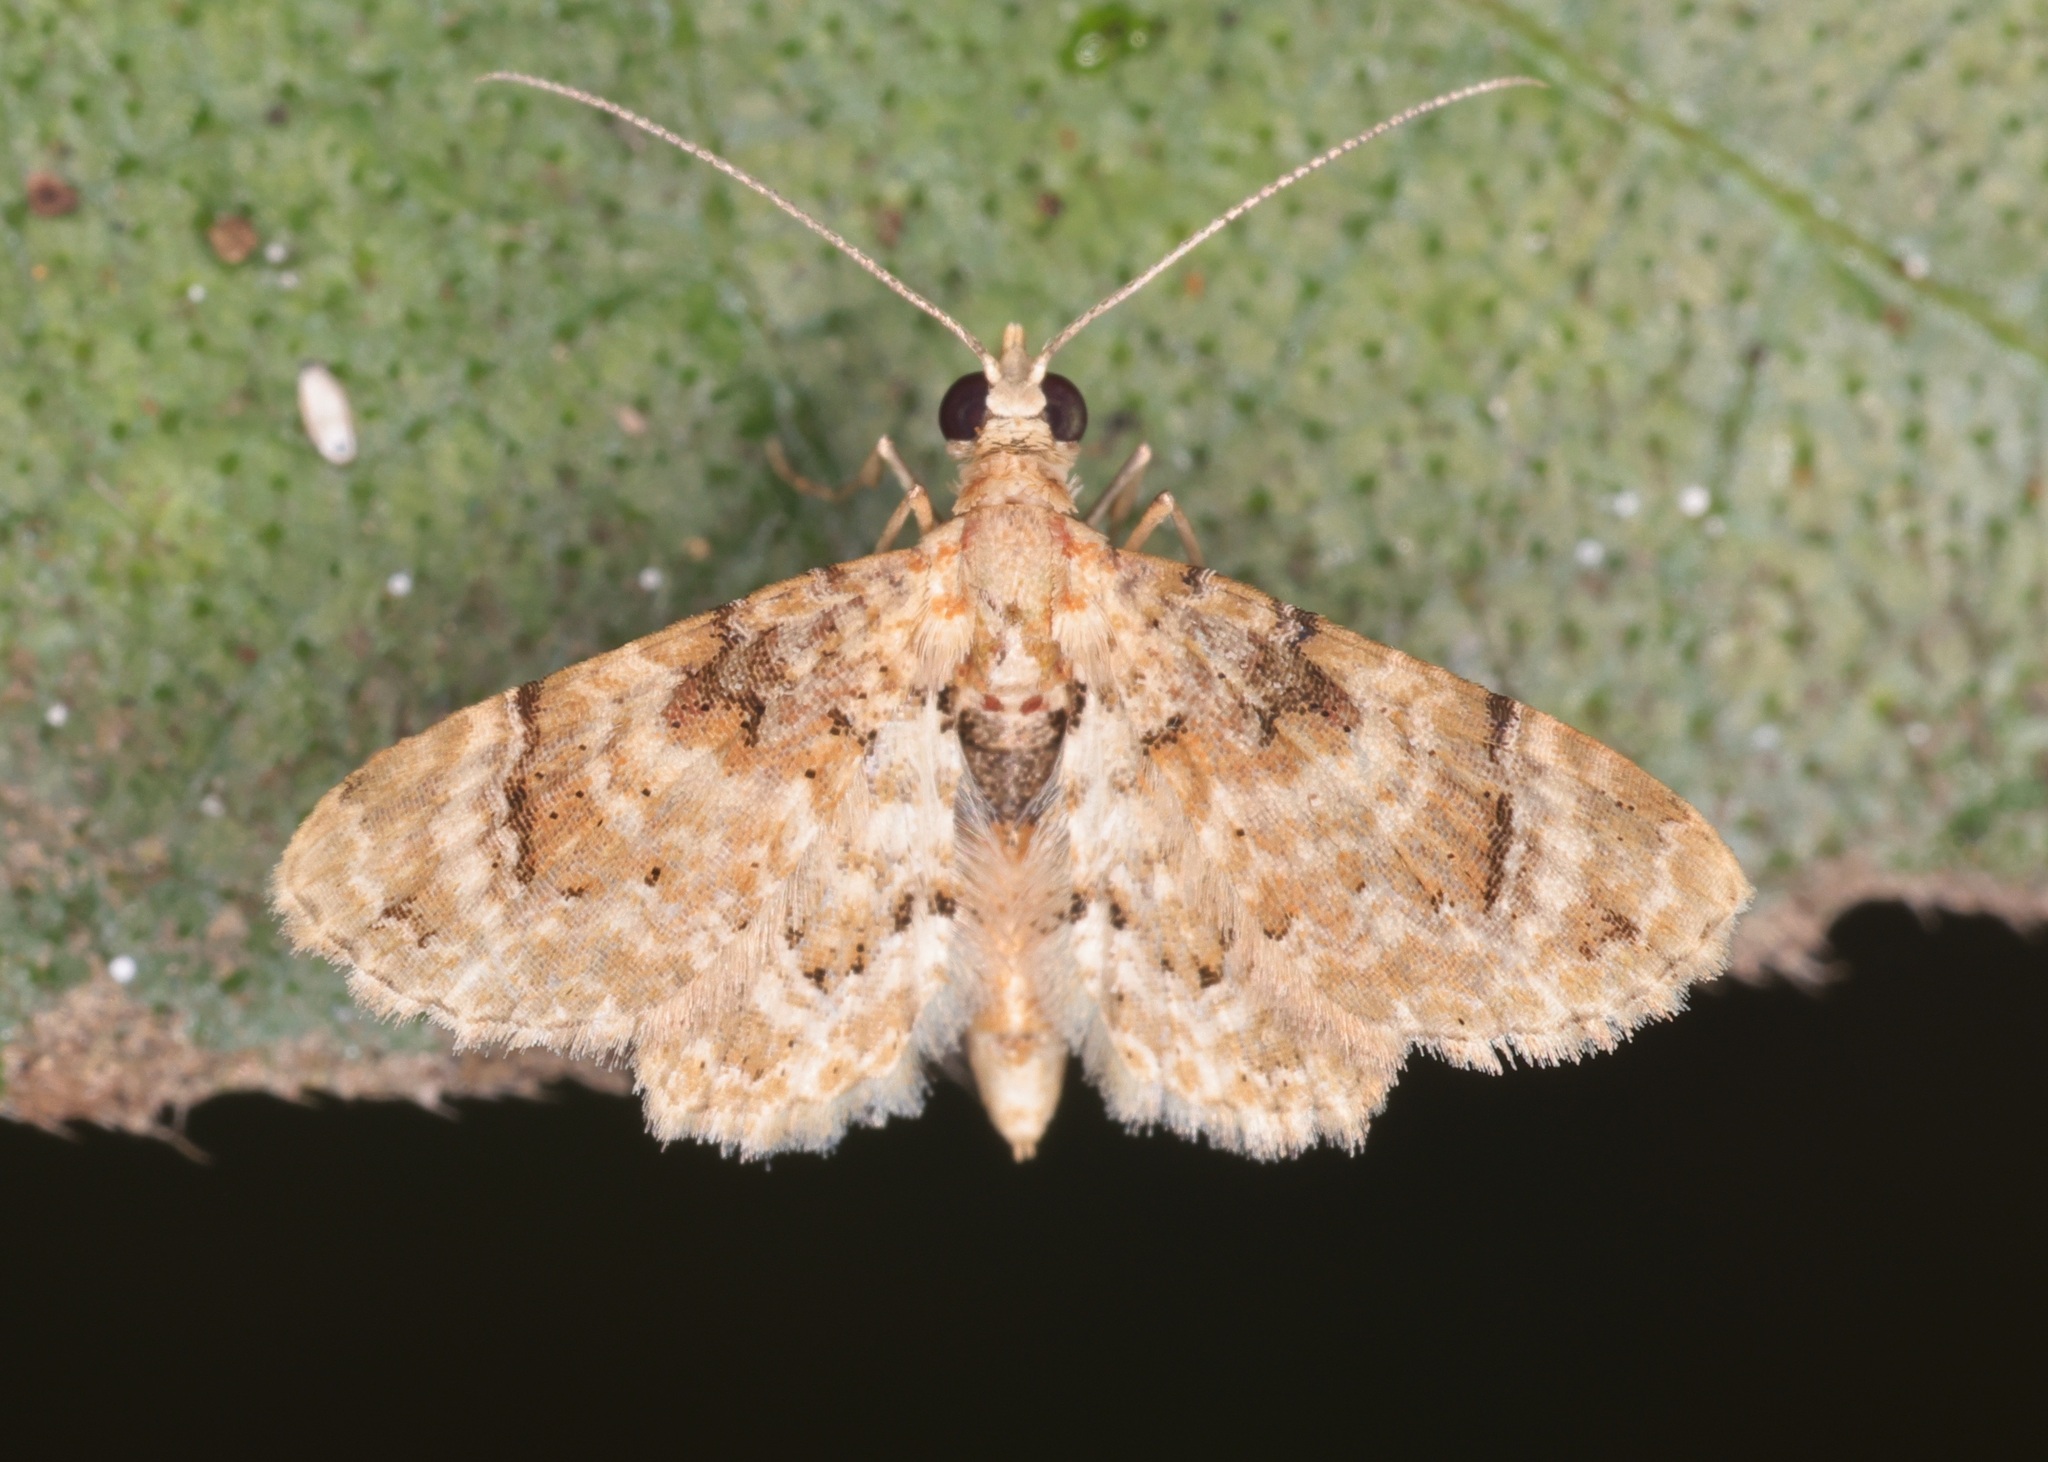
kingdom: Animalia
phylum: Arthropoda
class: Insecta
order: Lepidoptera
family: Geometridae
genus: Gymnoscelis
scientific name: Gymnoscelis admixtaria
